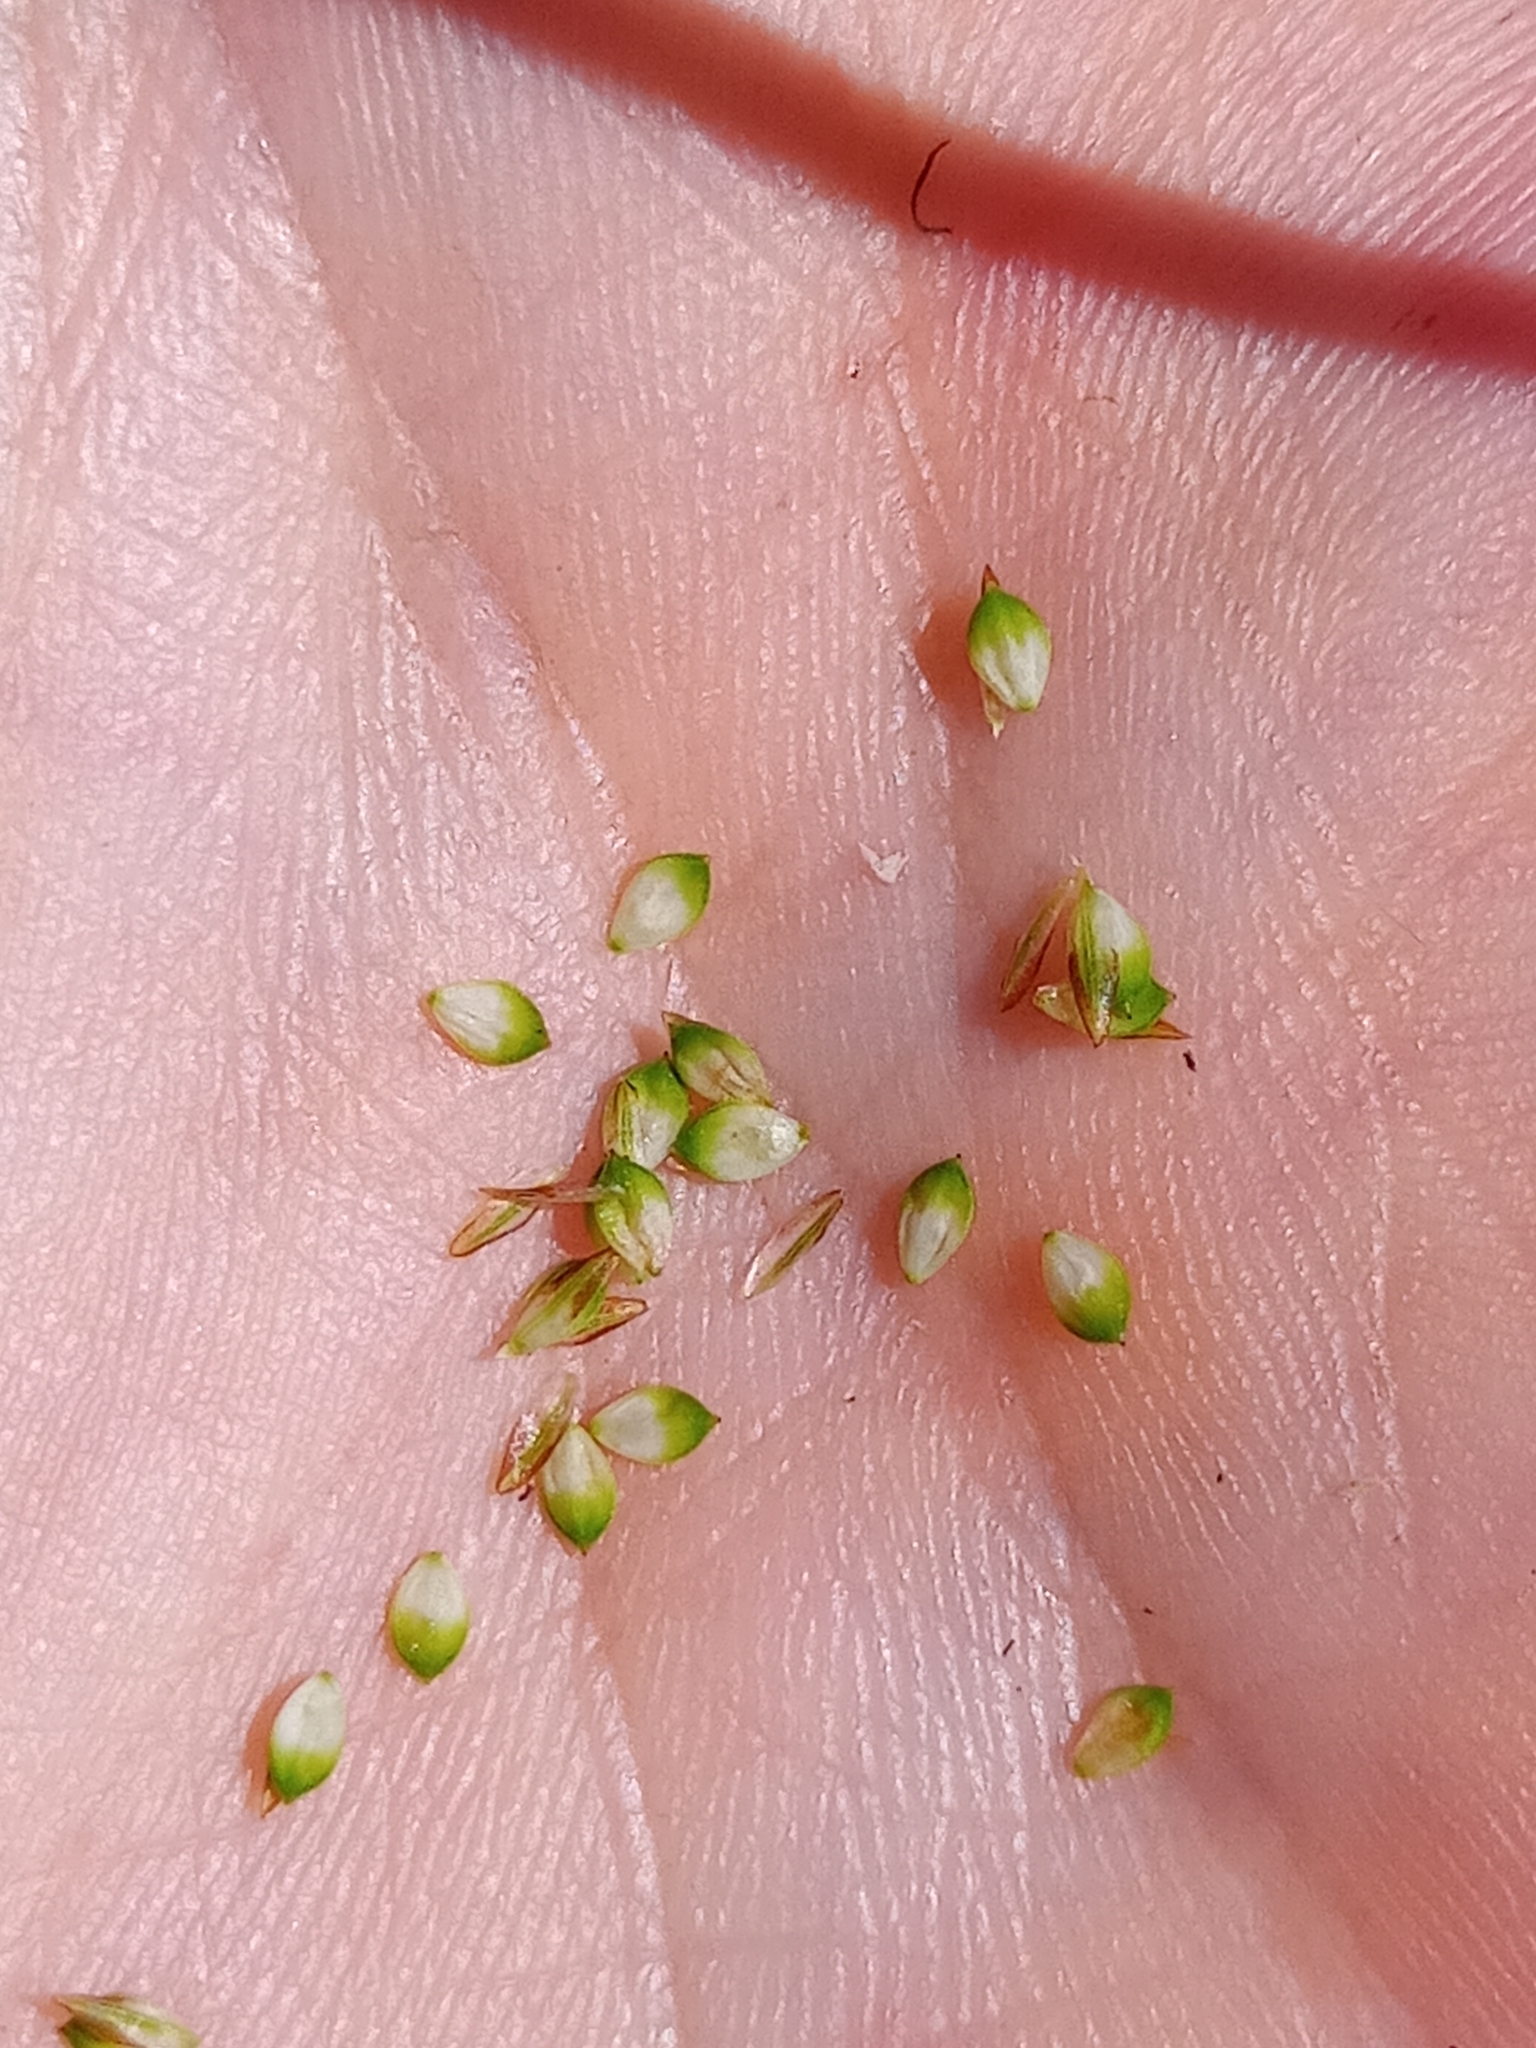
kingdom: Plantae
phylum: Tracheophyta
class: Liliopsida
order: Poales
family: Cyperaceae
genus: Carex
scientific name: Carex aquatilis
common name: Water sedge
